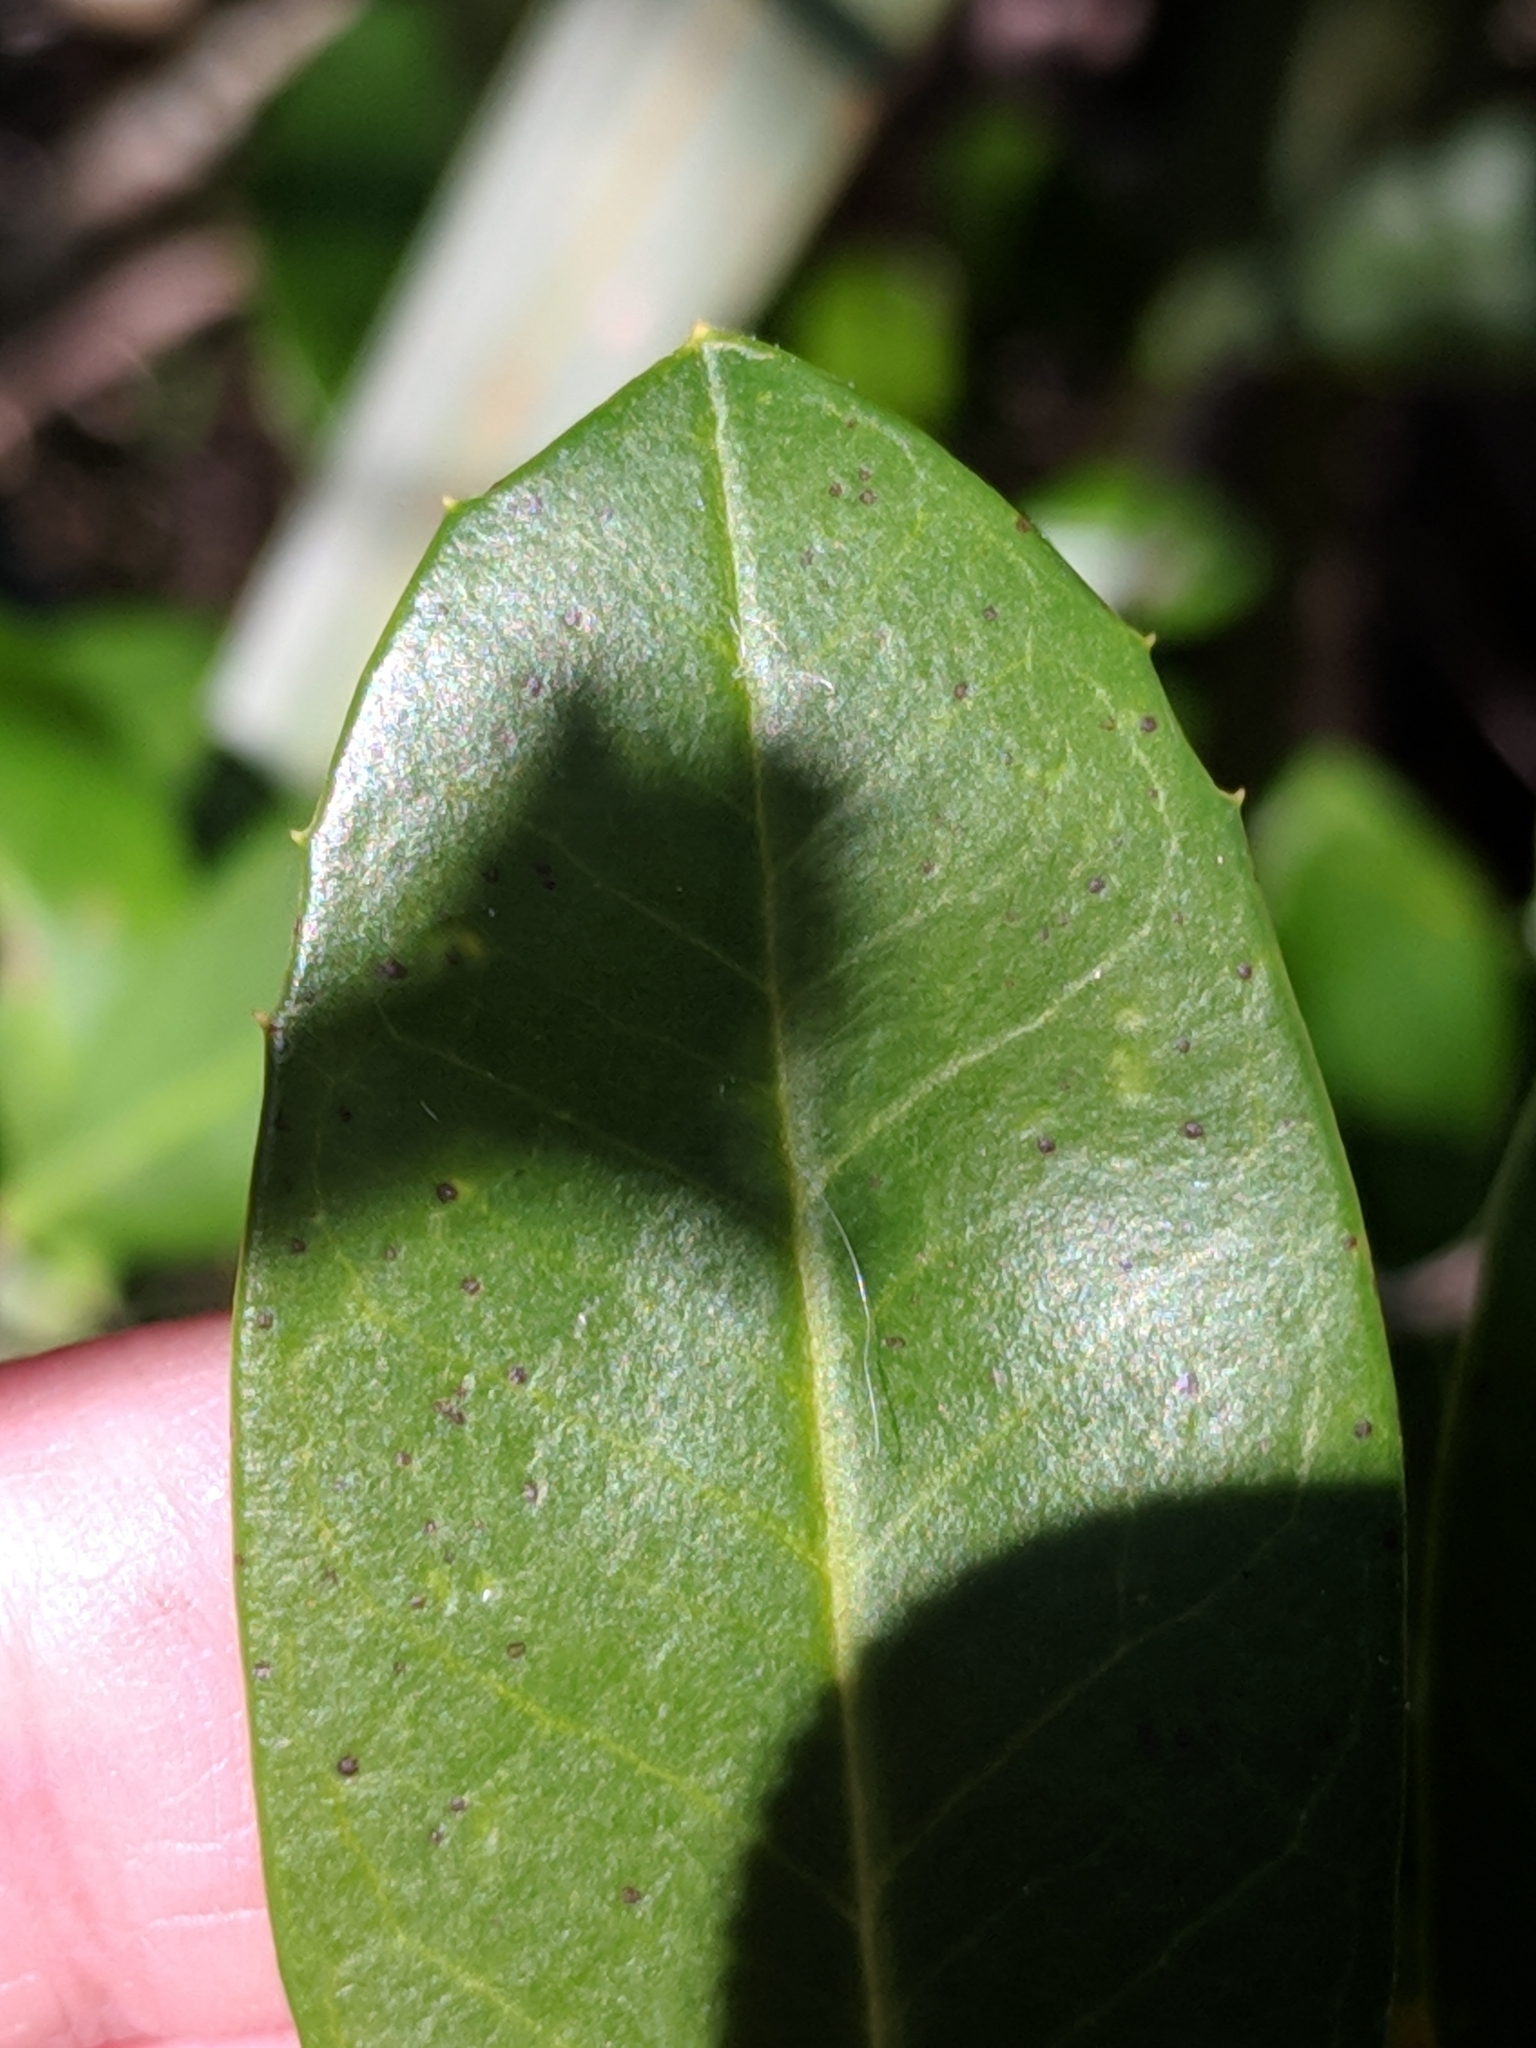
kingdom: Plantae
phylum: Tracheophyta
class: Magnoliopsida
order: Rosales
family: Rosaceae
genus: Prunus
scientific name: Prunus caroliniana
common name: Carolina laurel cherry
